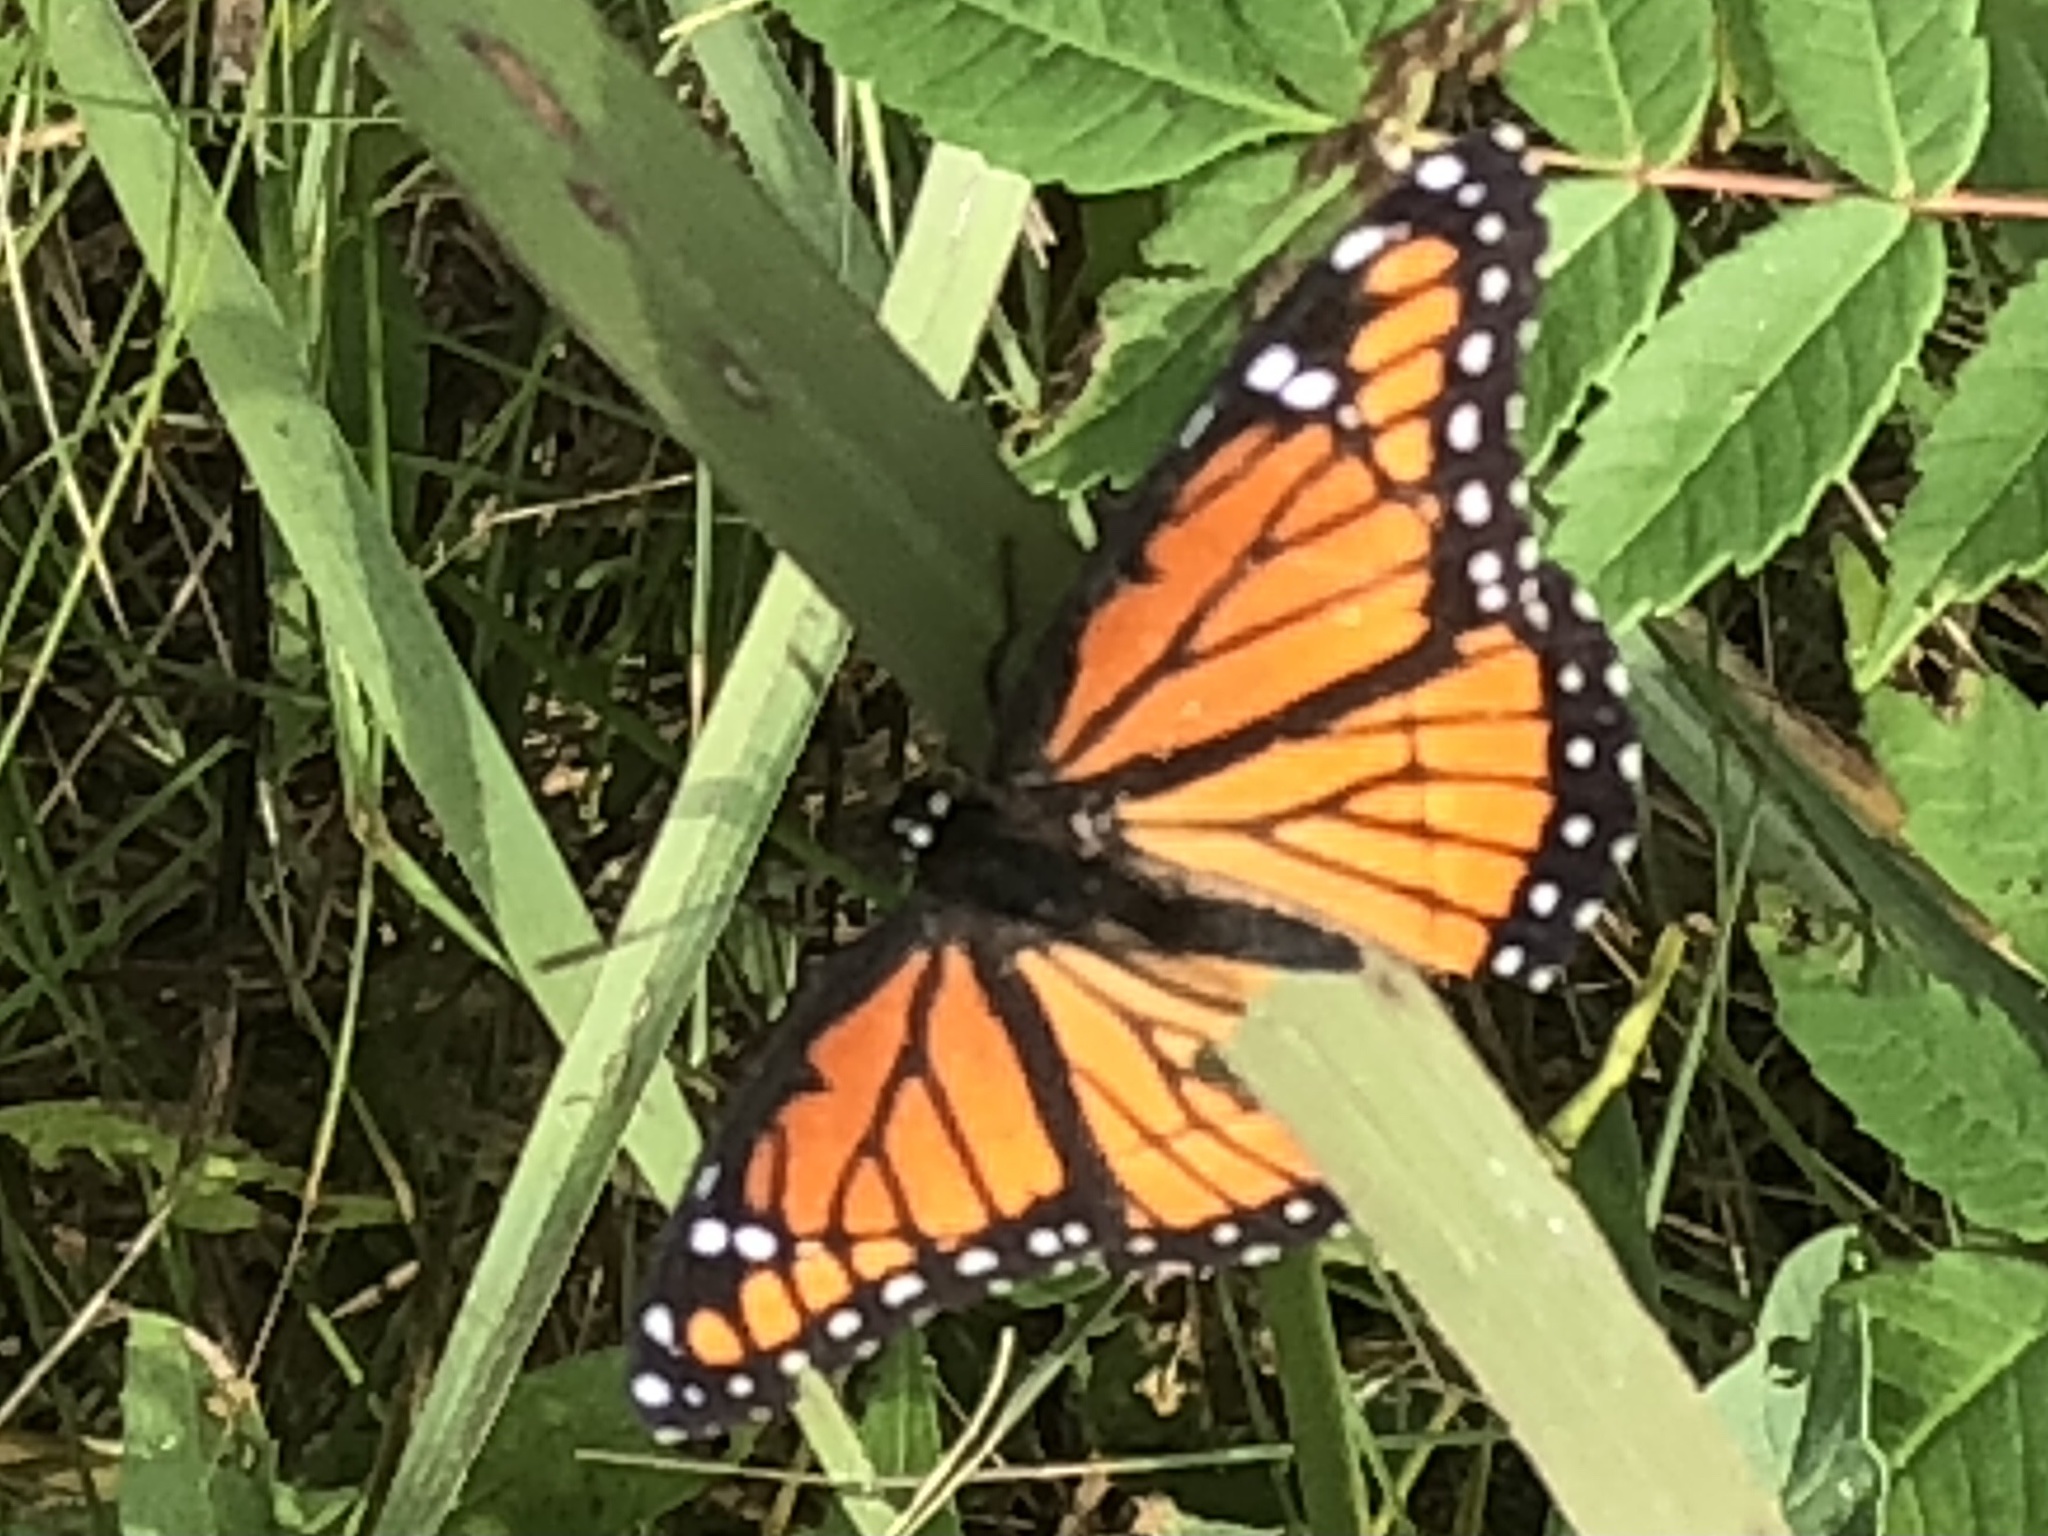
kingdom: Animalia
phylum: Arthropoda
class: Insecta
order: Lepidoptera
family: Nymphalidae
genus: Limenitis
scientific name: Limenitis archippus
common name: Viceroy
